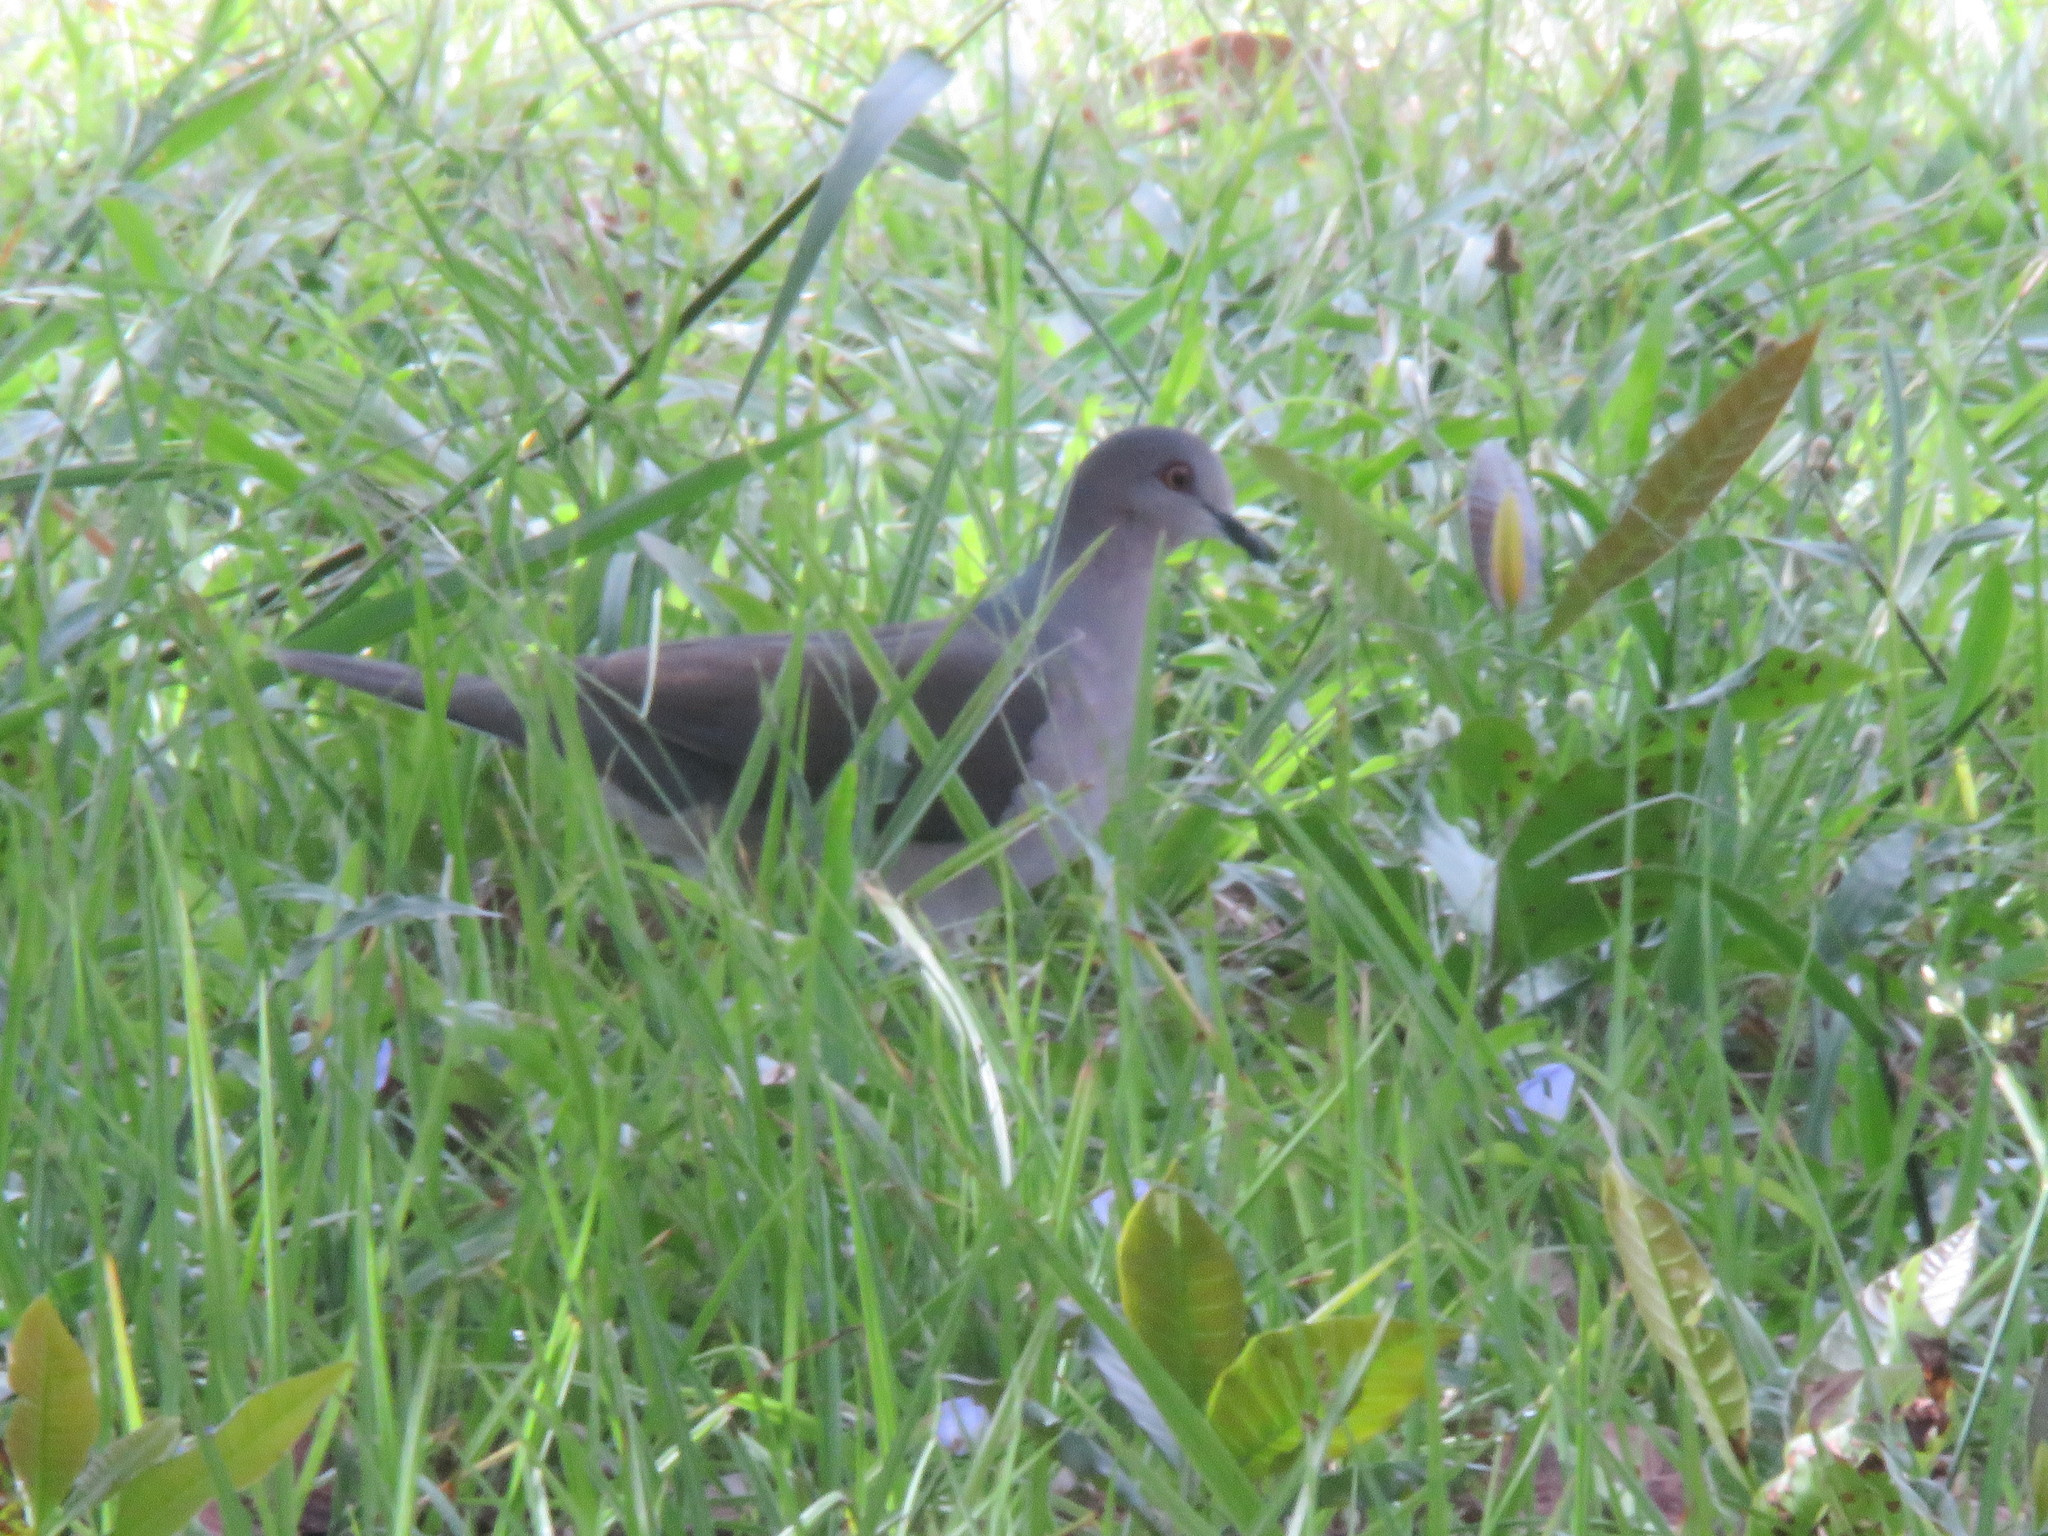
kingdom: Animalia
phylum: Chordata
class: Aves
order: Columbiformes
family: Columbidae
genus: Leptotila
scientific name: Leptotila rufaxilla
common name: Grey-fronted dove
